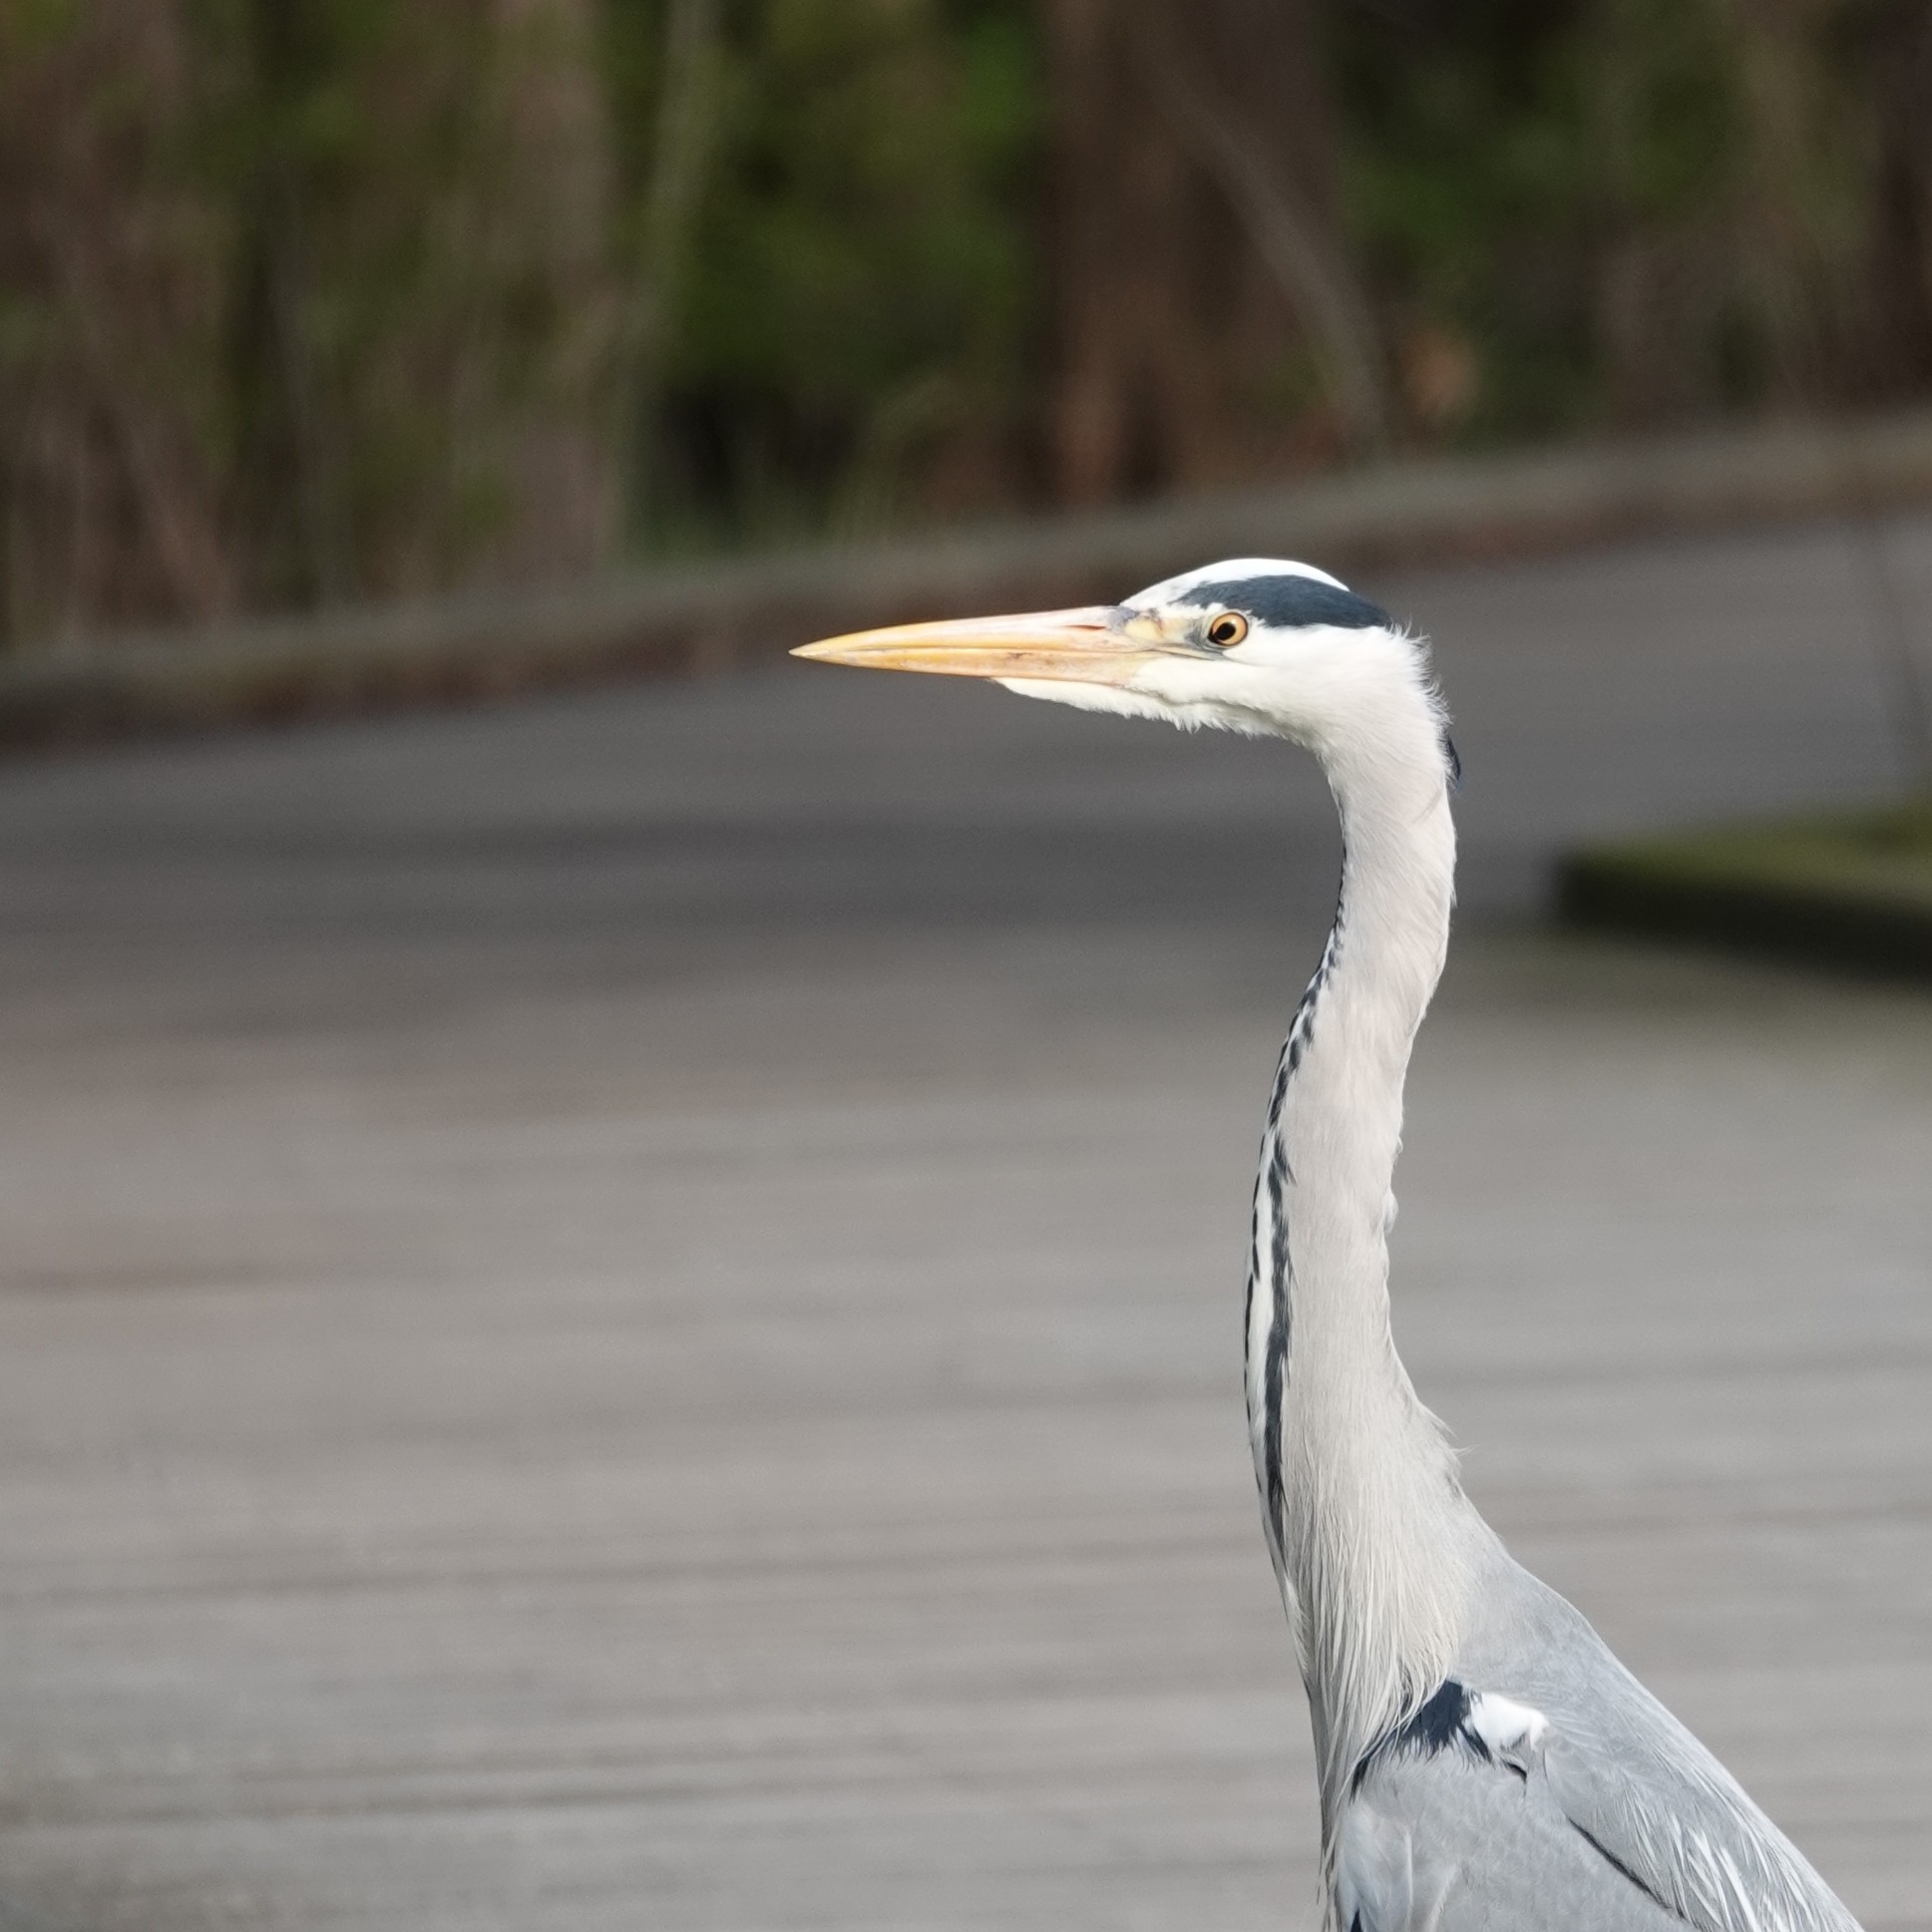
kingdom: Animalia
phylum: Chordata
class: Aves
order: Pelecaniformes
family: Ardeidae
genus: Ardea
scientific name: Ardea cinerea
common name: Grey heron
